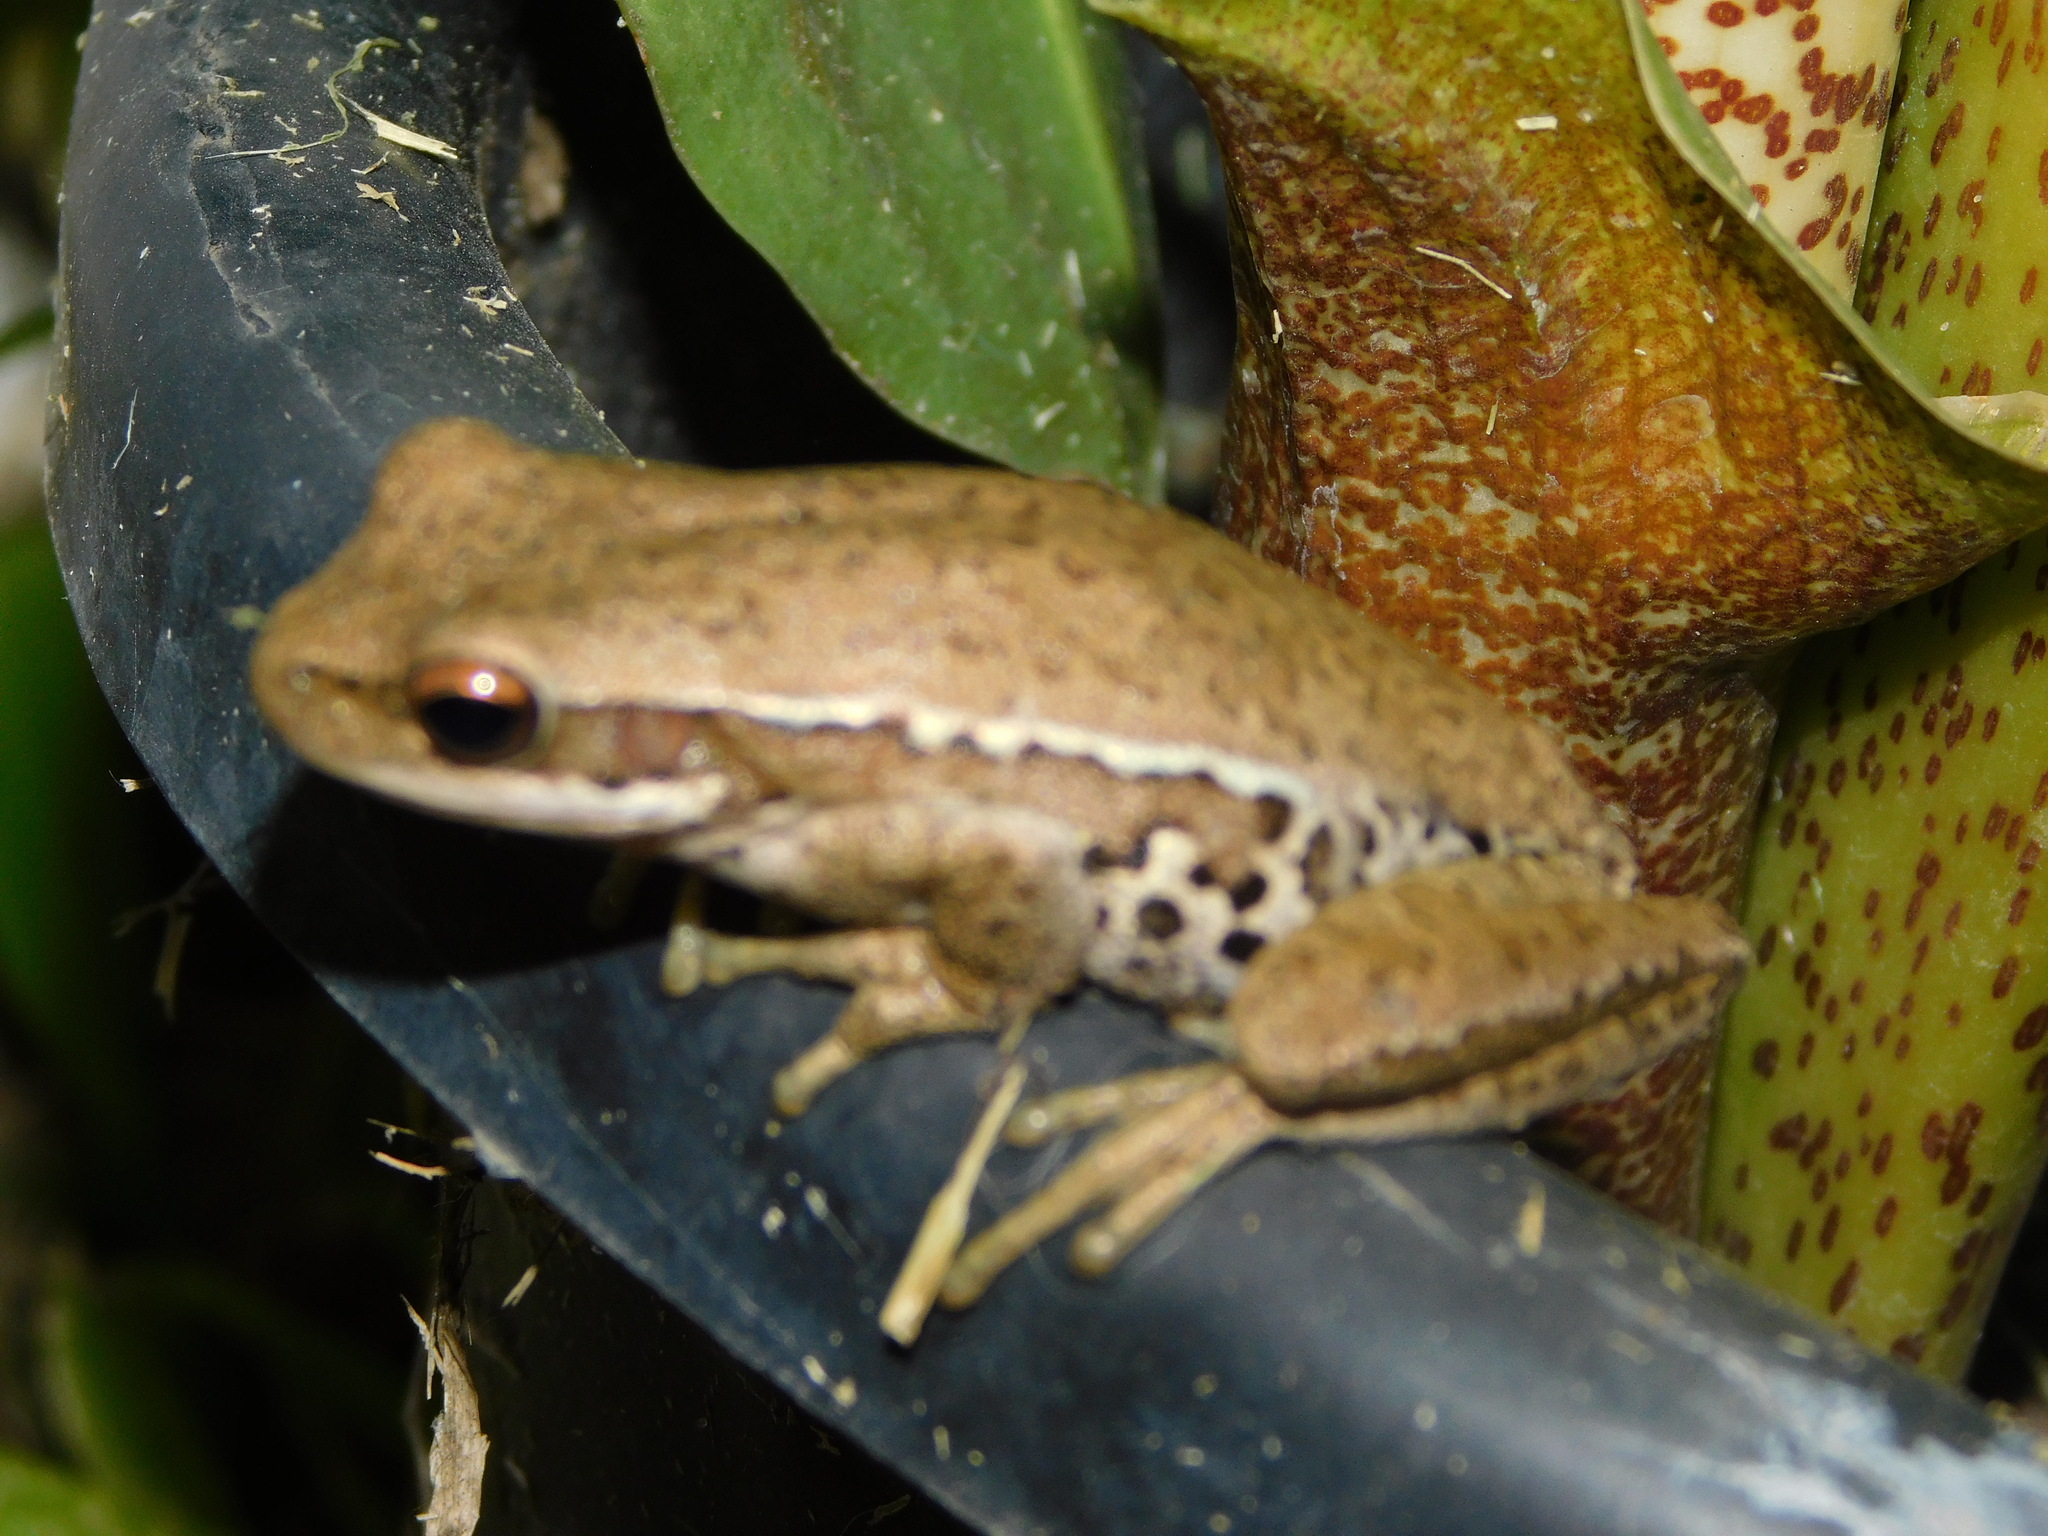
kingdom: Animalia
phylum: Chordata
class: Amphibia
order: Anura
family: Hylidae
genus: Boana
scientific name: Boana pulchella
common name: Montevideo treefrog
